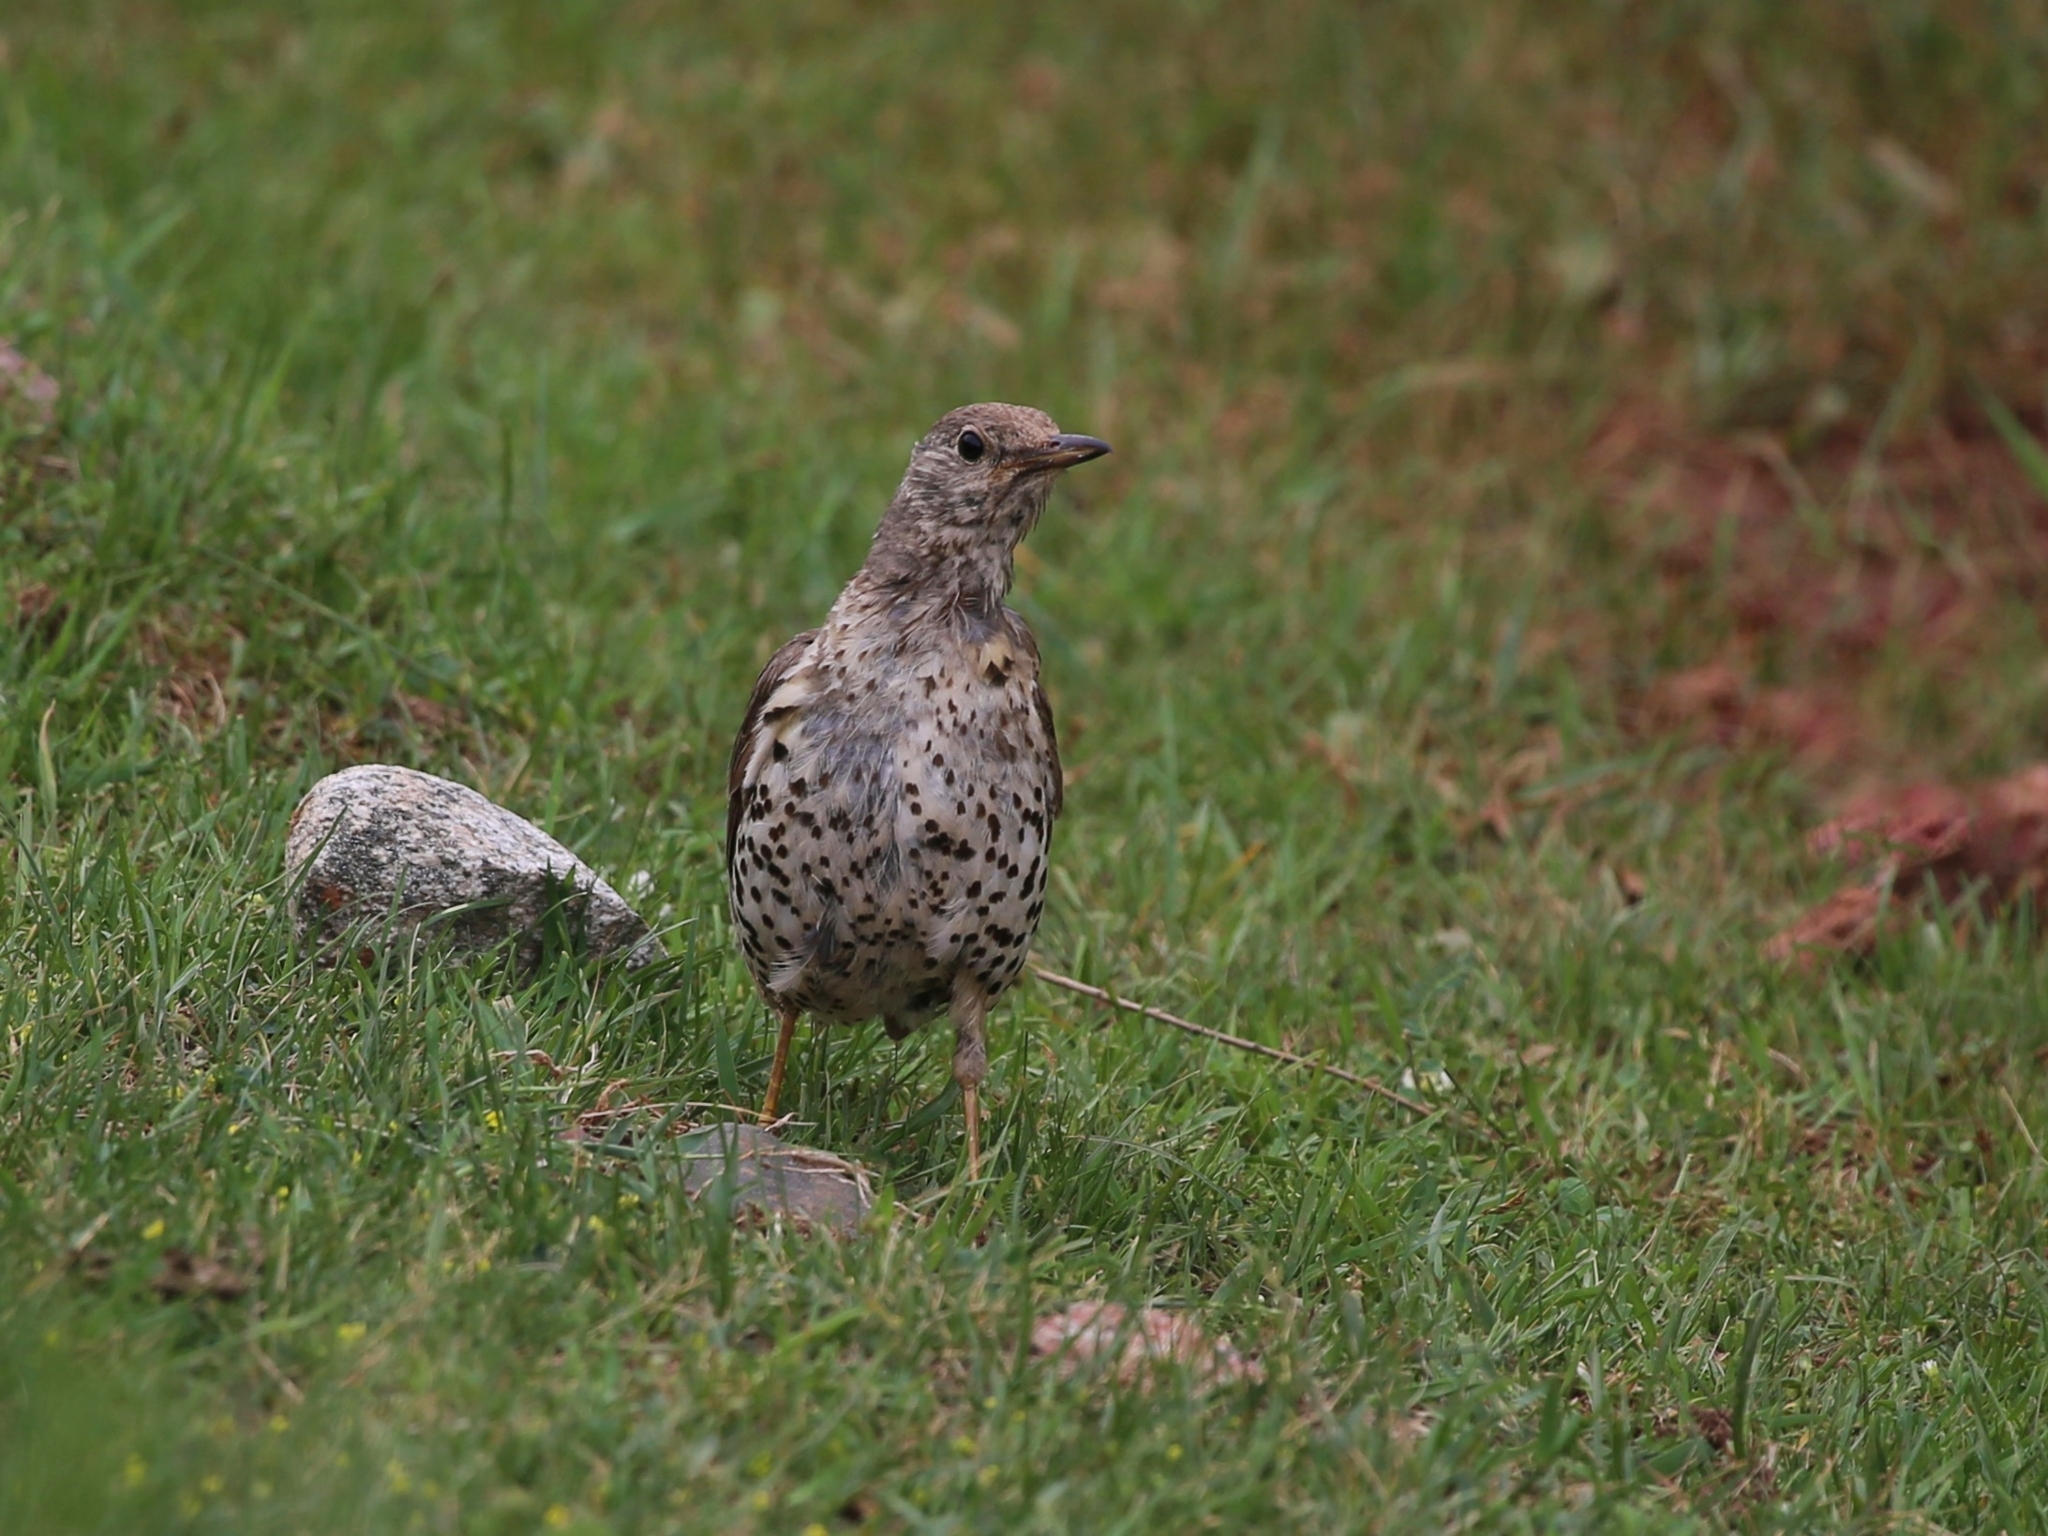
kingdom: Animalia
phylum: Chordata
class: Aves
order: Passeriformes
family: Turdidae
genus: Turdus
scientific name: Turdus viscivorus
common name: Mistle thrush
